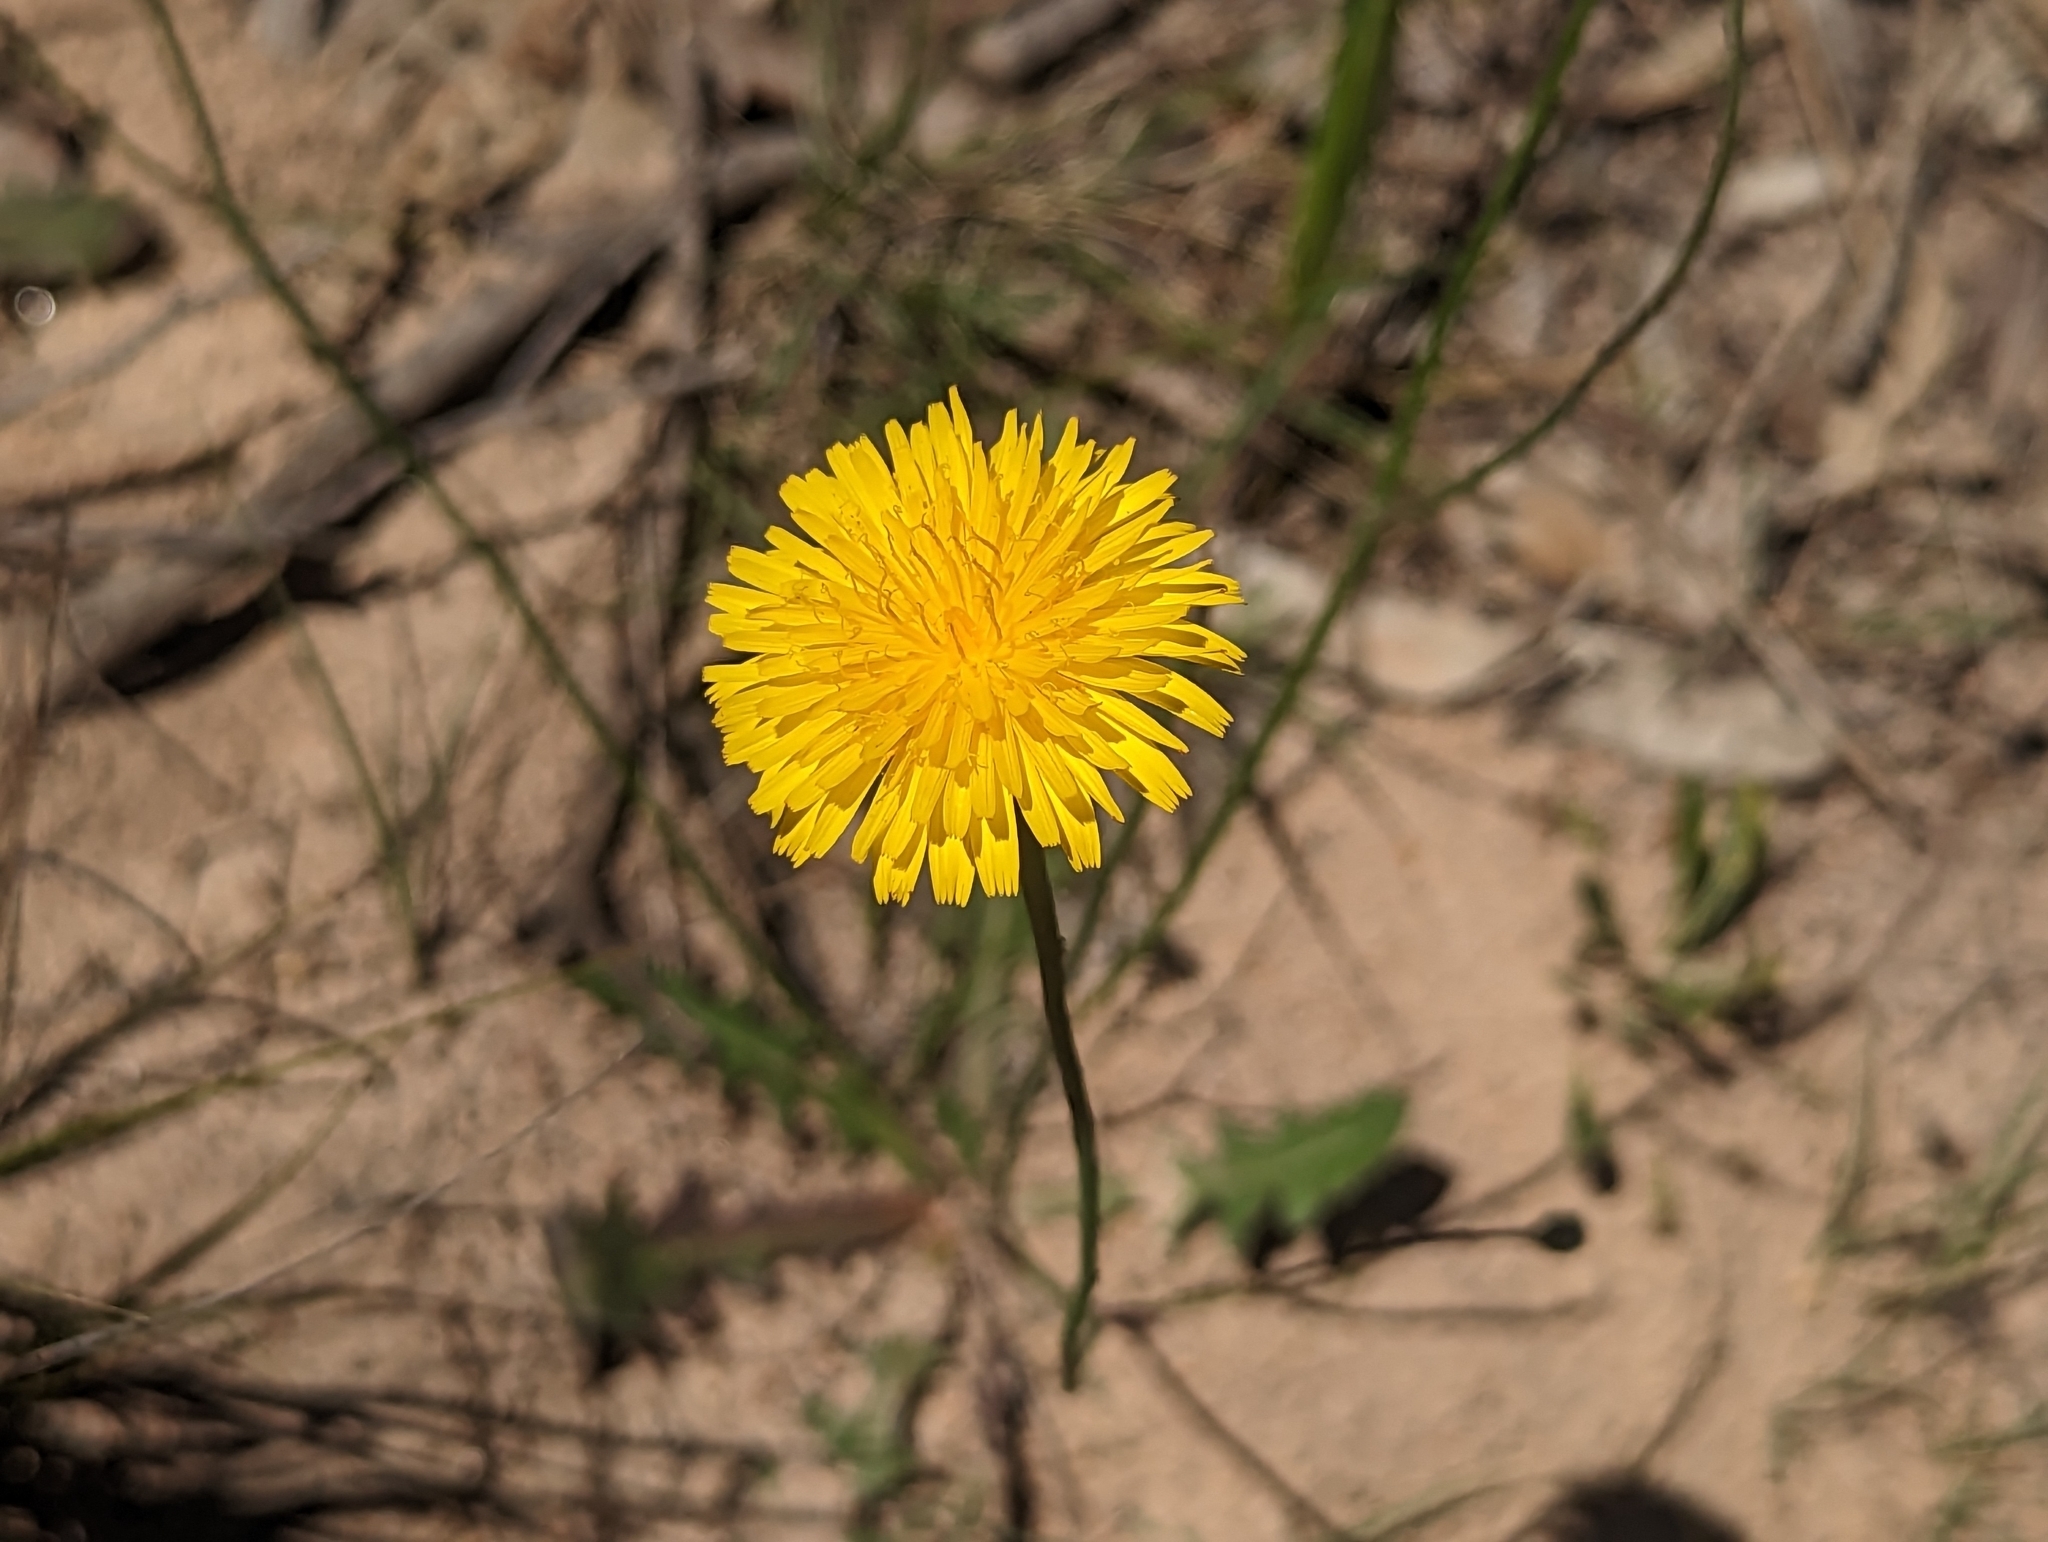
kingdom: Plantae
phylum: Tracheophyta
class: Magnoliopsida
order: Asterales
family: Asteraceae
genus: Hypochaeris
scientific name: Hypochaeris radicata
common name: Flatweed
